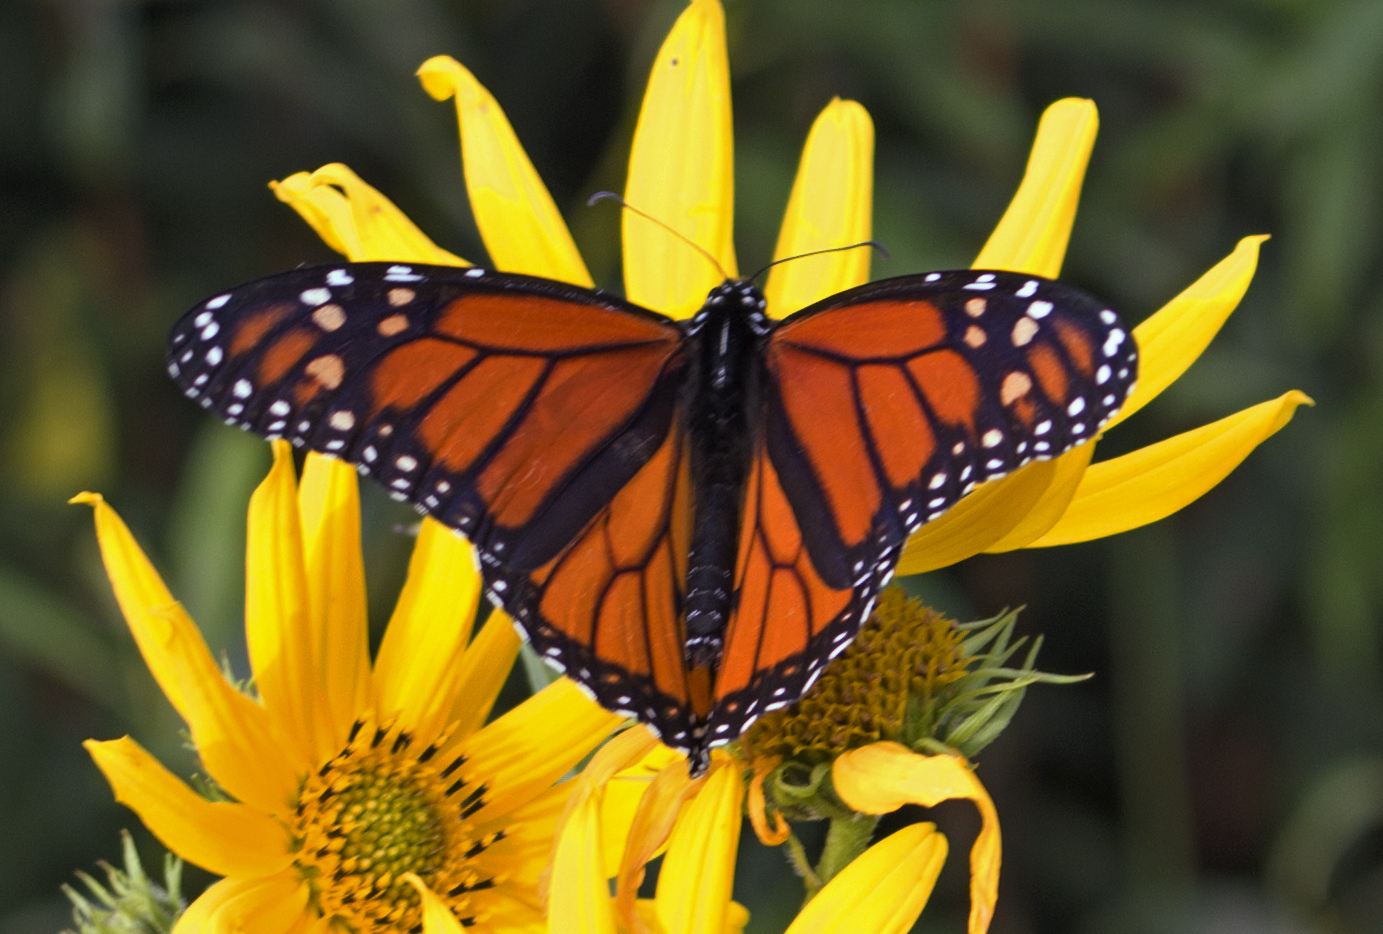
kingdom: Animalia
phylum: Arthropoda
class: Insecta
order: Lepidoptera
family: Nymphalidae
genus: Danaus
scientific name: Danaus plexippus
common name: Monarch
